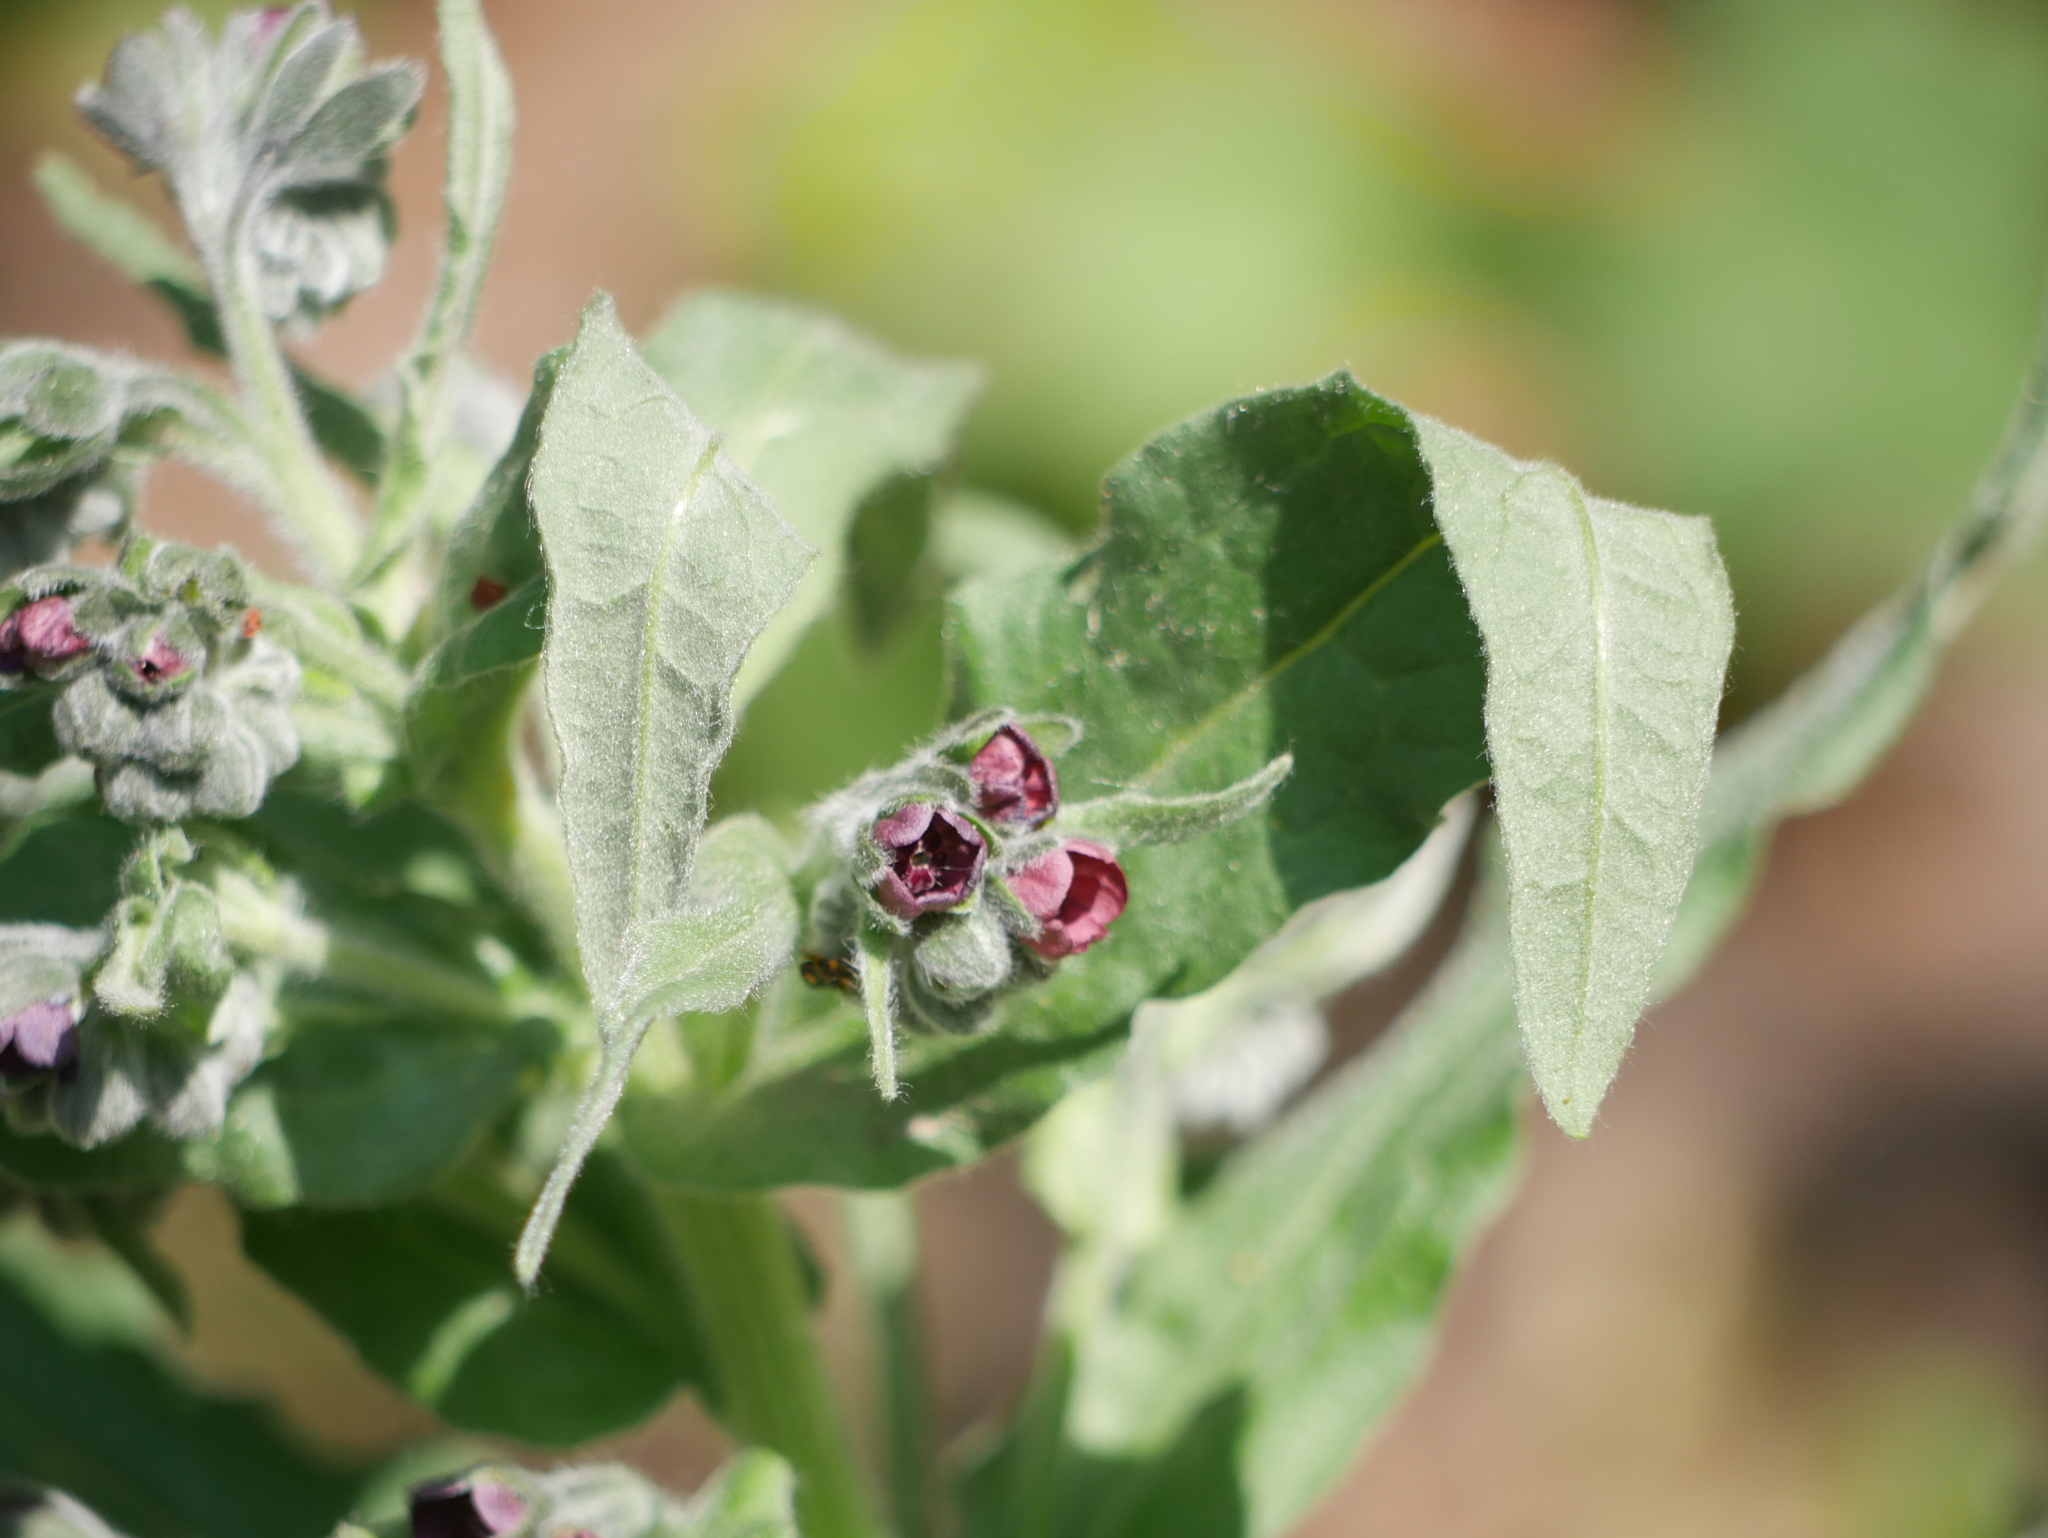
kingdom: Plantae
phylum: Tracheophyta
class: Magnoliopsida
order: Boraginales
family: Boraginaceae
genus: Cynoglossum
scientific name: Cynoglossum officinale
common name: Hound's-tongue
